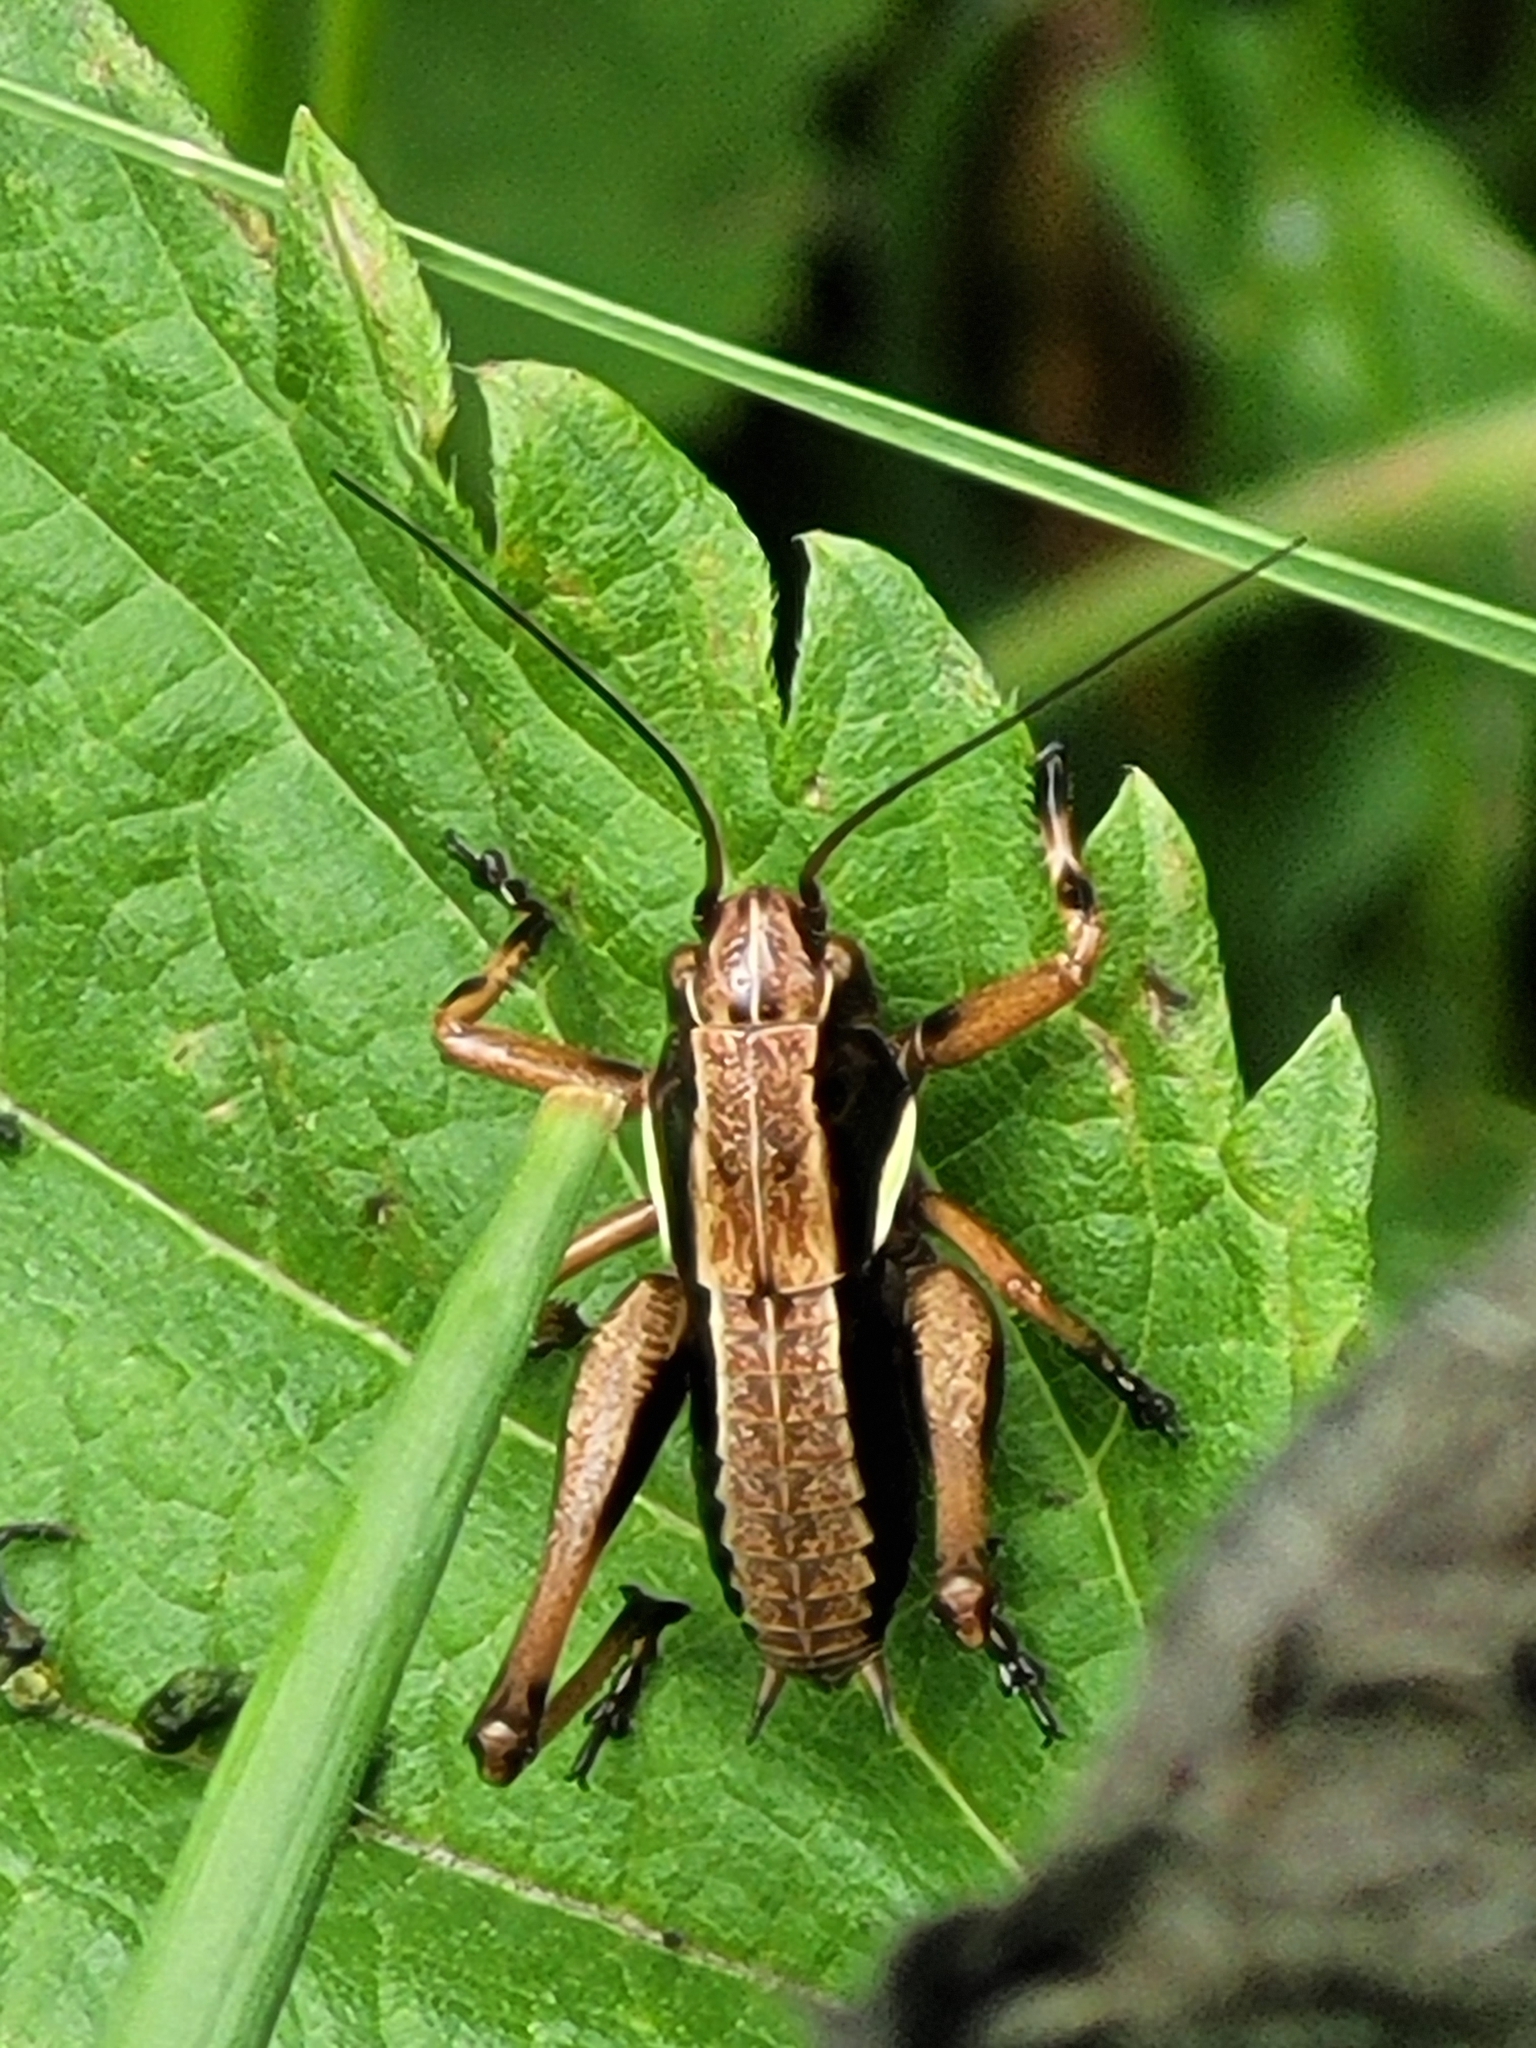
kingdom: Animalia
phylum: Arthropoda
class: Insecta
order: Orthoptera
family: Tettigoniidae
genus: Pholidoptera
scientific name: Pholidoptera aptera
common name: Alpine dark bush-cricket
